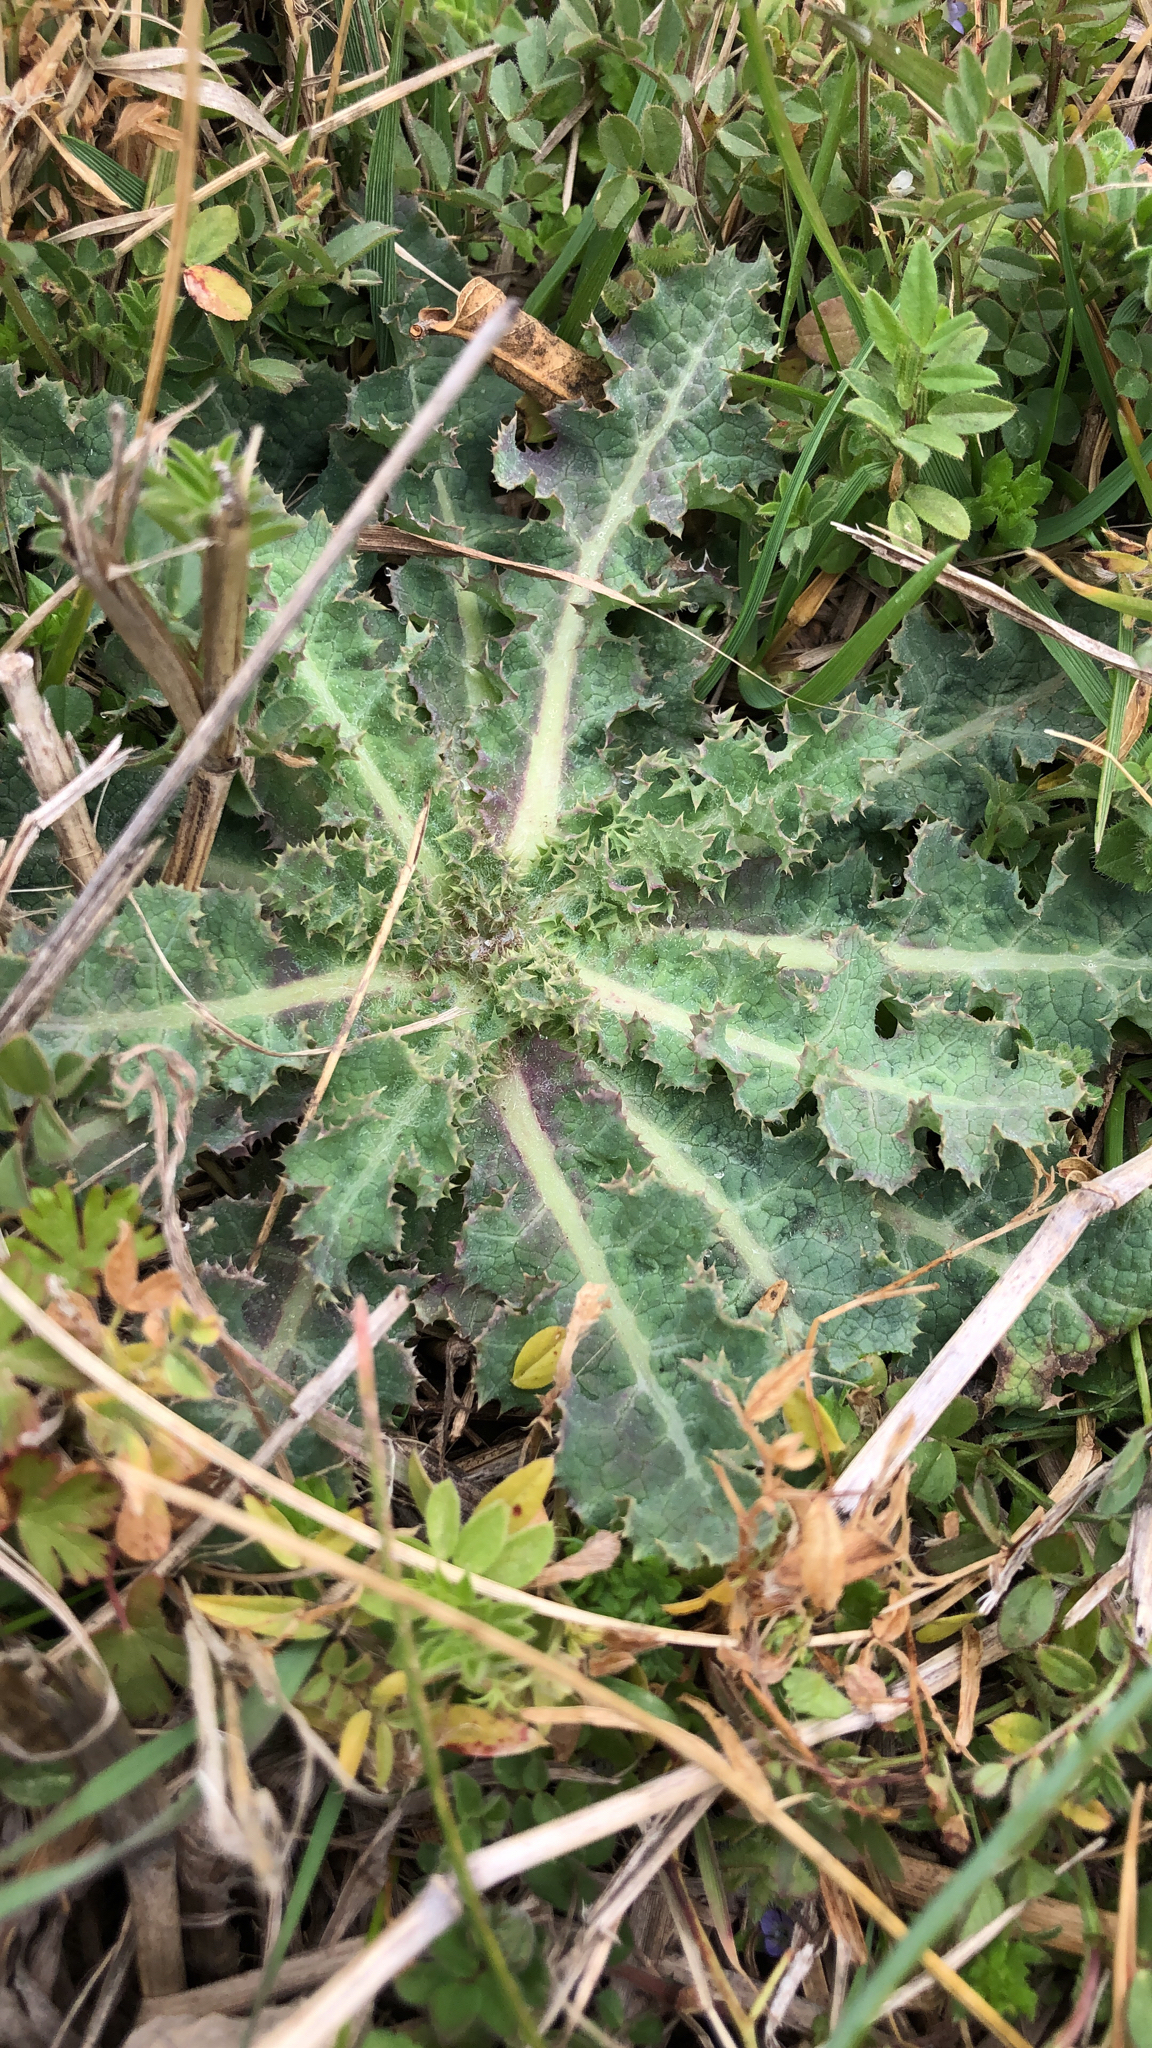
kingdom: Plantae
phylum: Tracheophyta
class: Magnoliopsida
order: Asterales
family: Asteraceae
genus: Sonchus
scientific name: Sonchus asper
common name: Prickly sow-thistle
